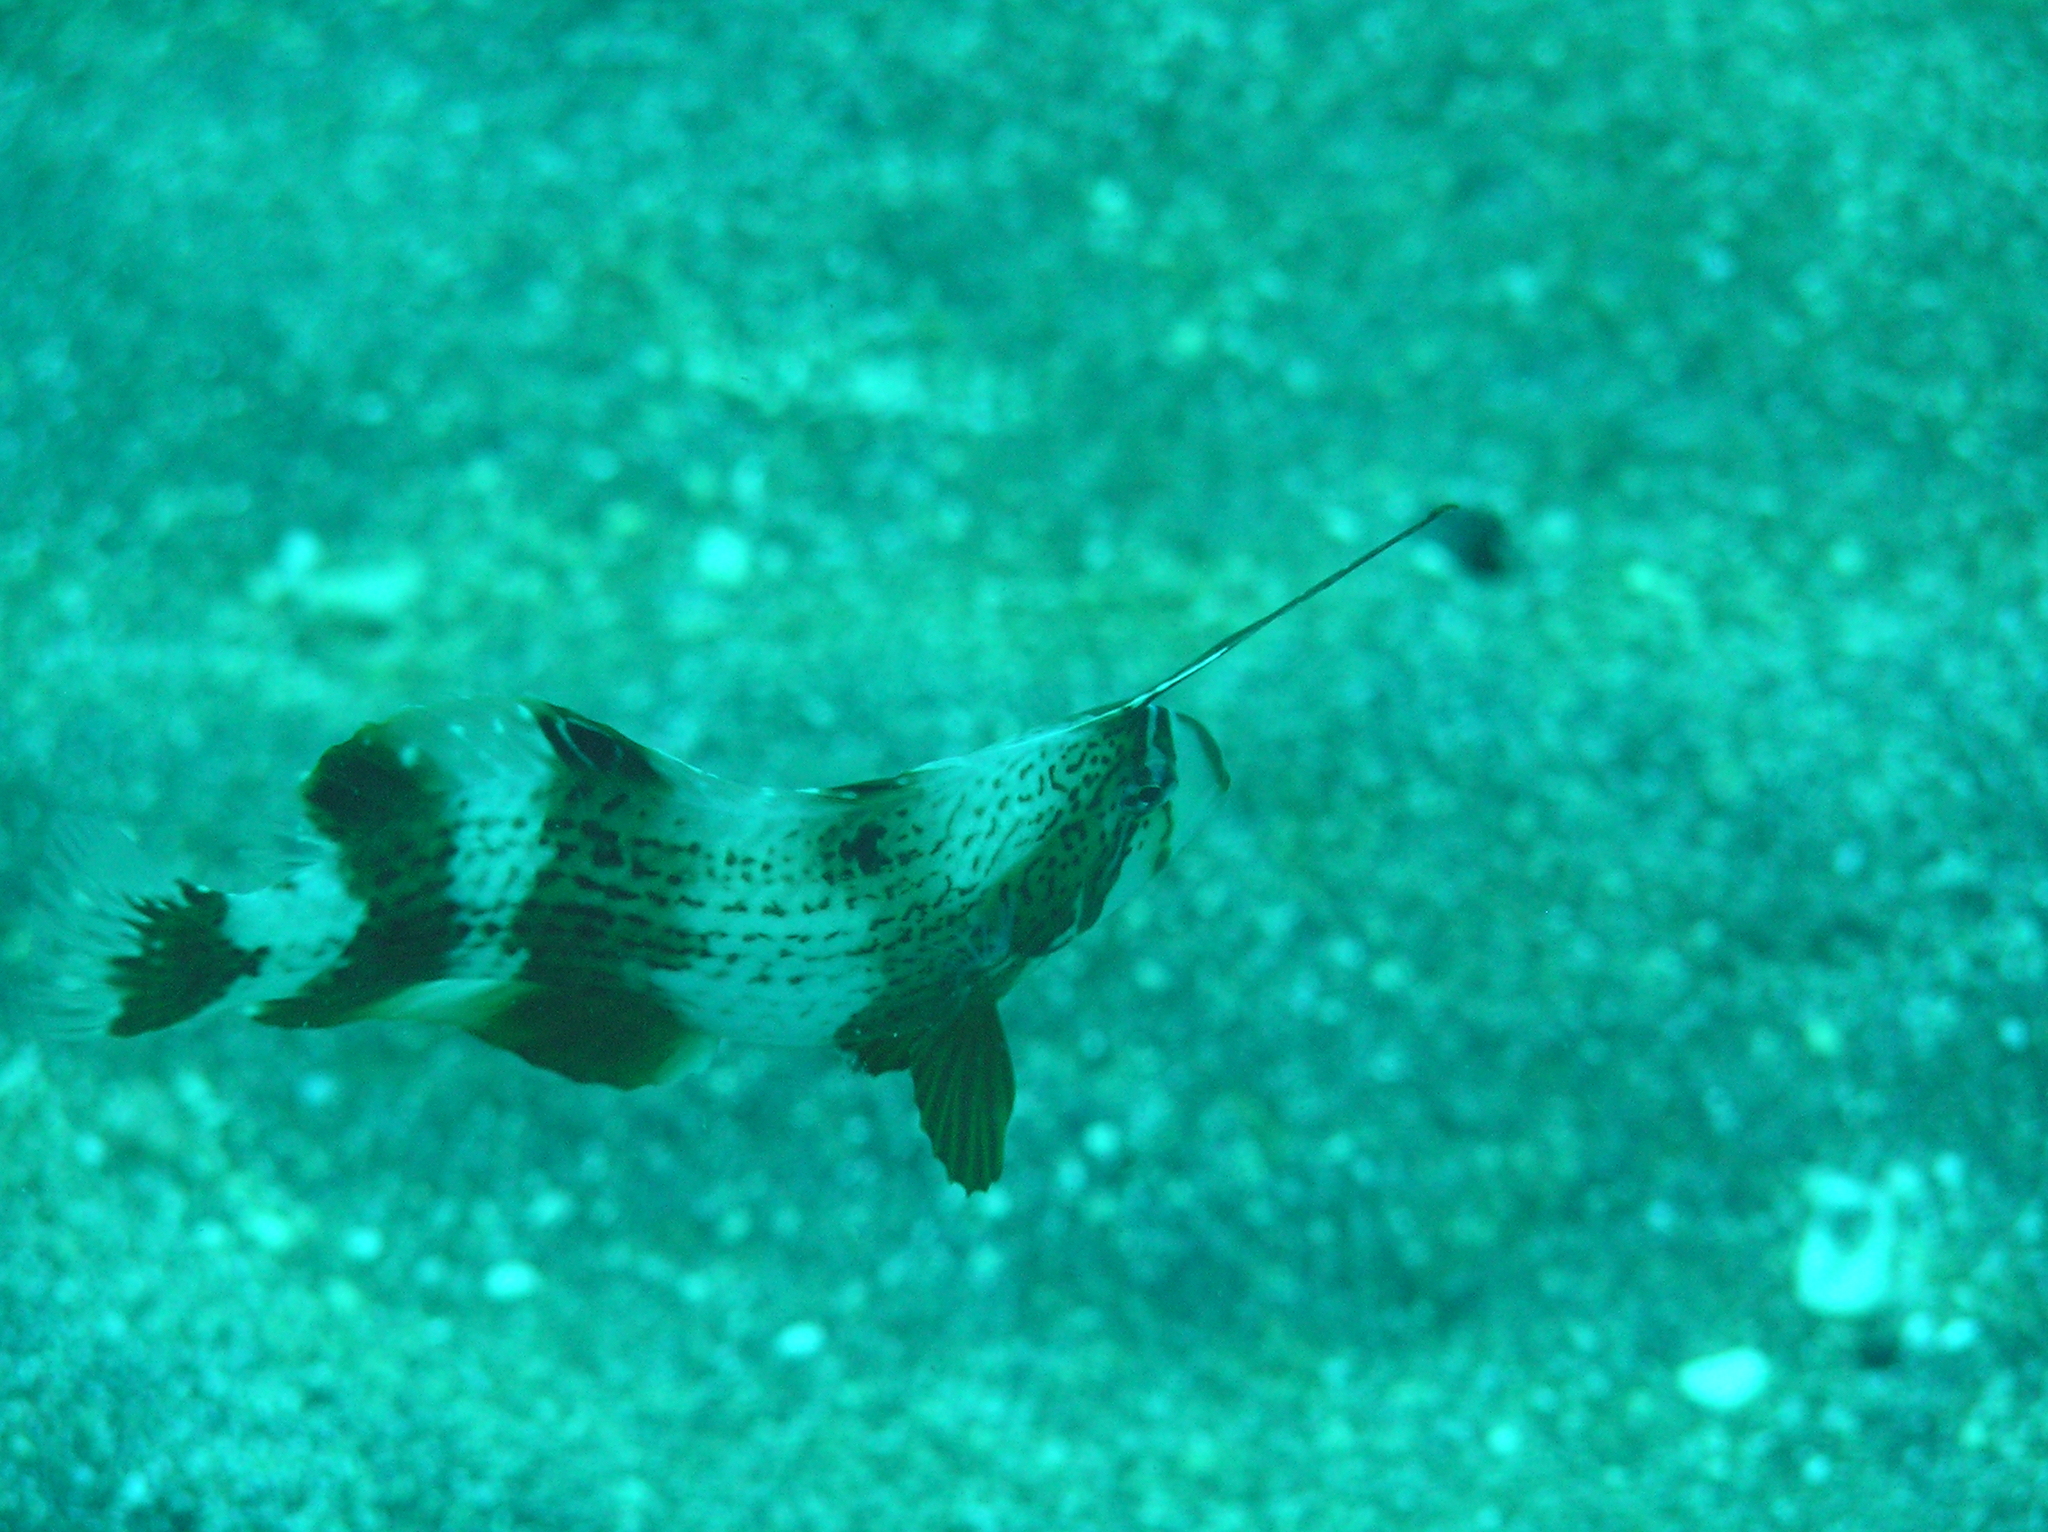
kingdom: Animalia
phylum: Chordata
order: Perciformes
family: Labridae
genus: Iniistius
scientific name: Iniistius pavo
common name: Peacock wrasse
